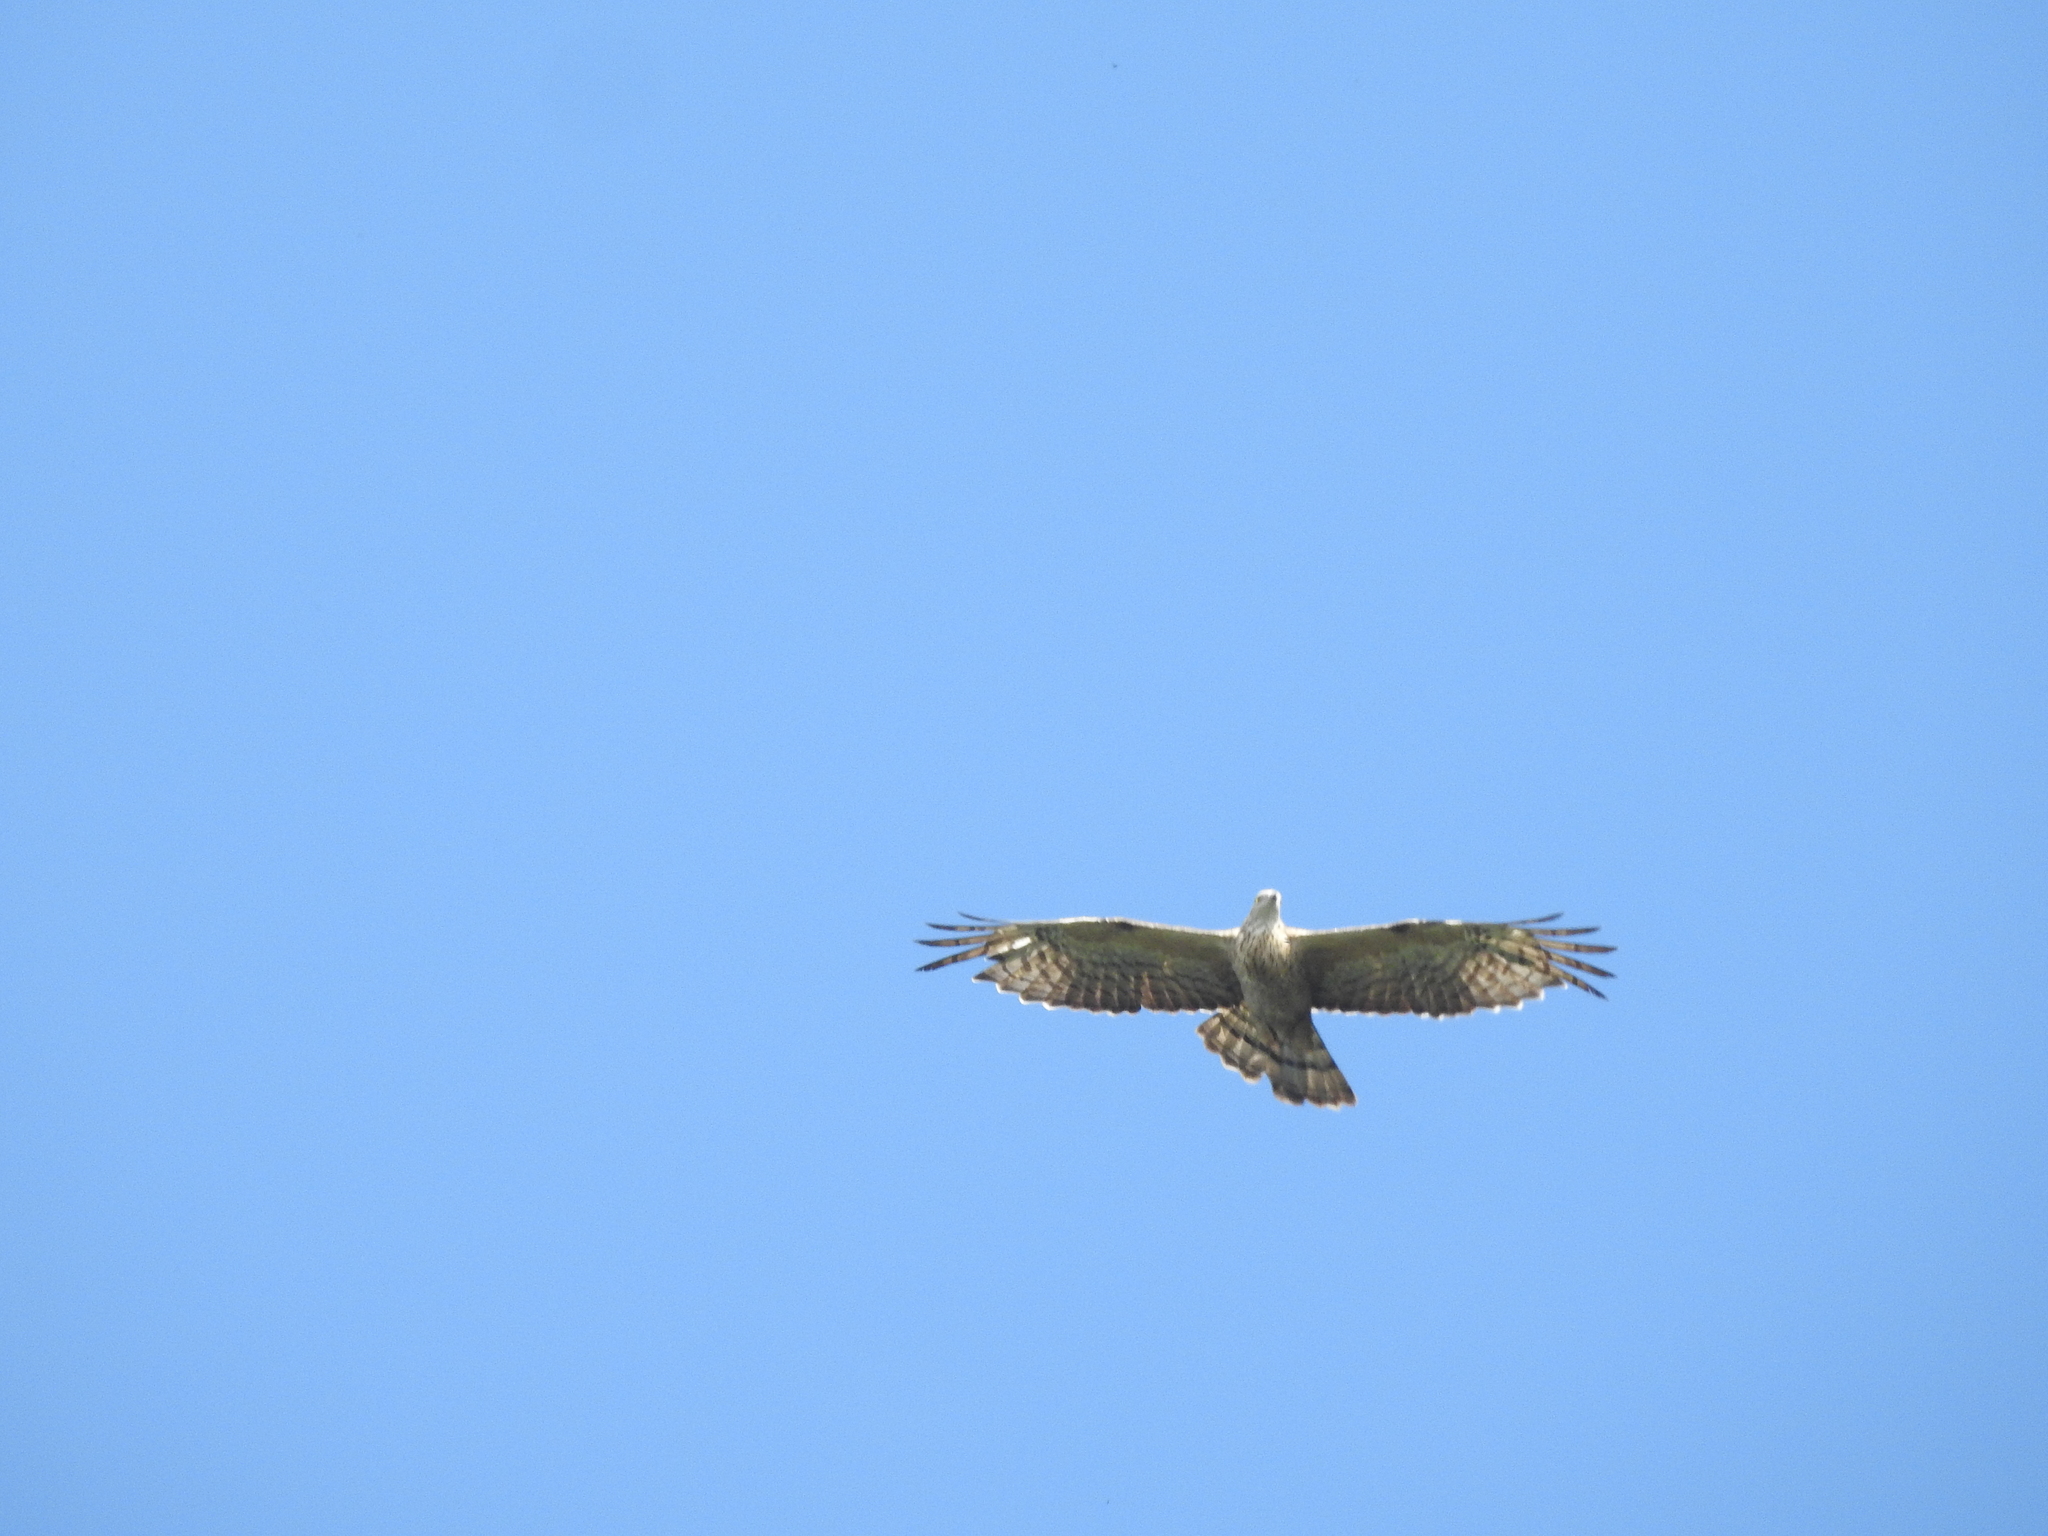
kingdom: Animalia
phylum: Chordata
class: Aves
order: Accipitriformes
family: Accipitridae
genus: Pernis
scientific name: Pernis ptilorhynchus
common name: Crested honey buzzard
